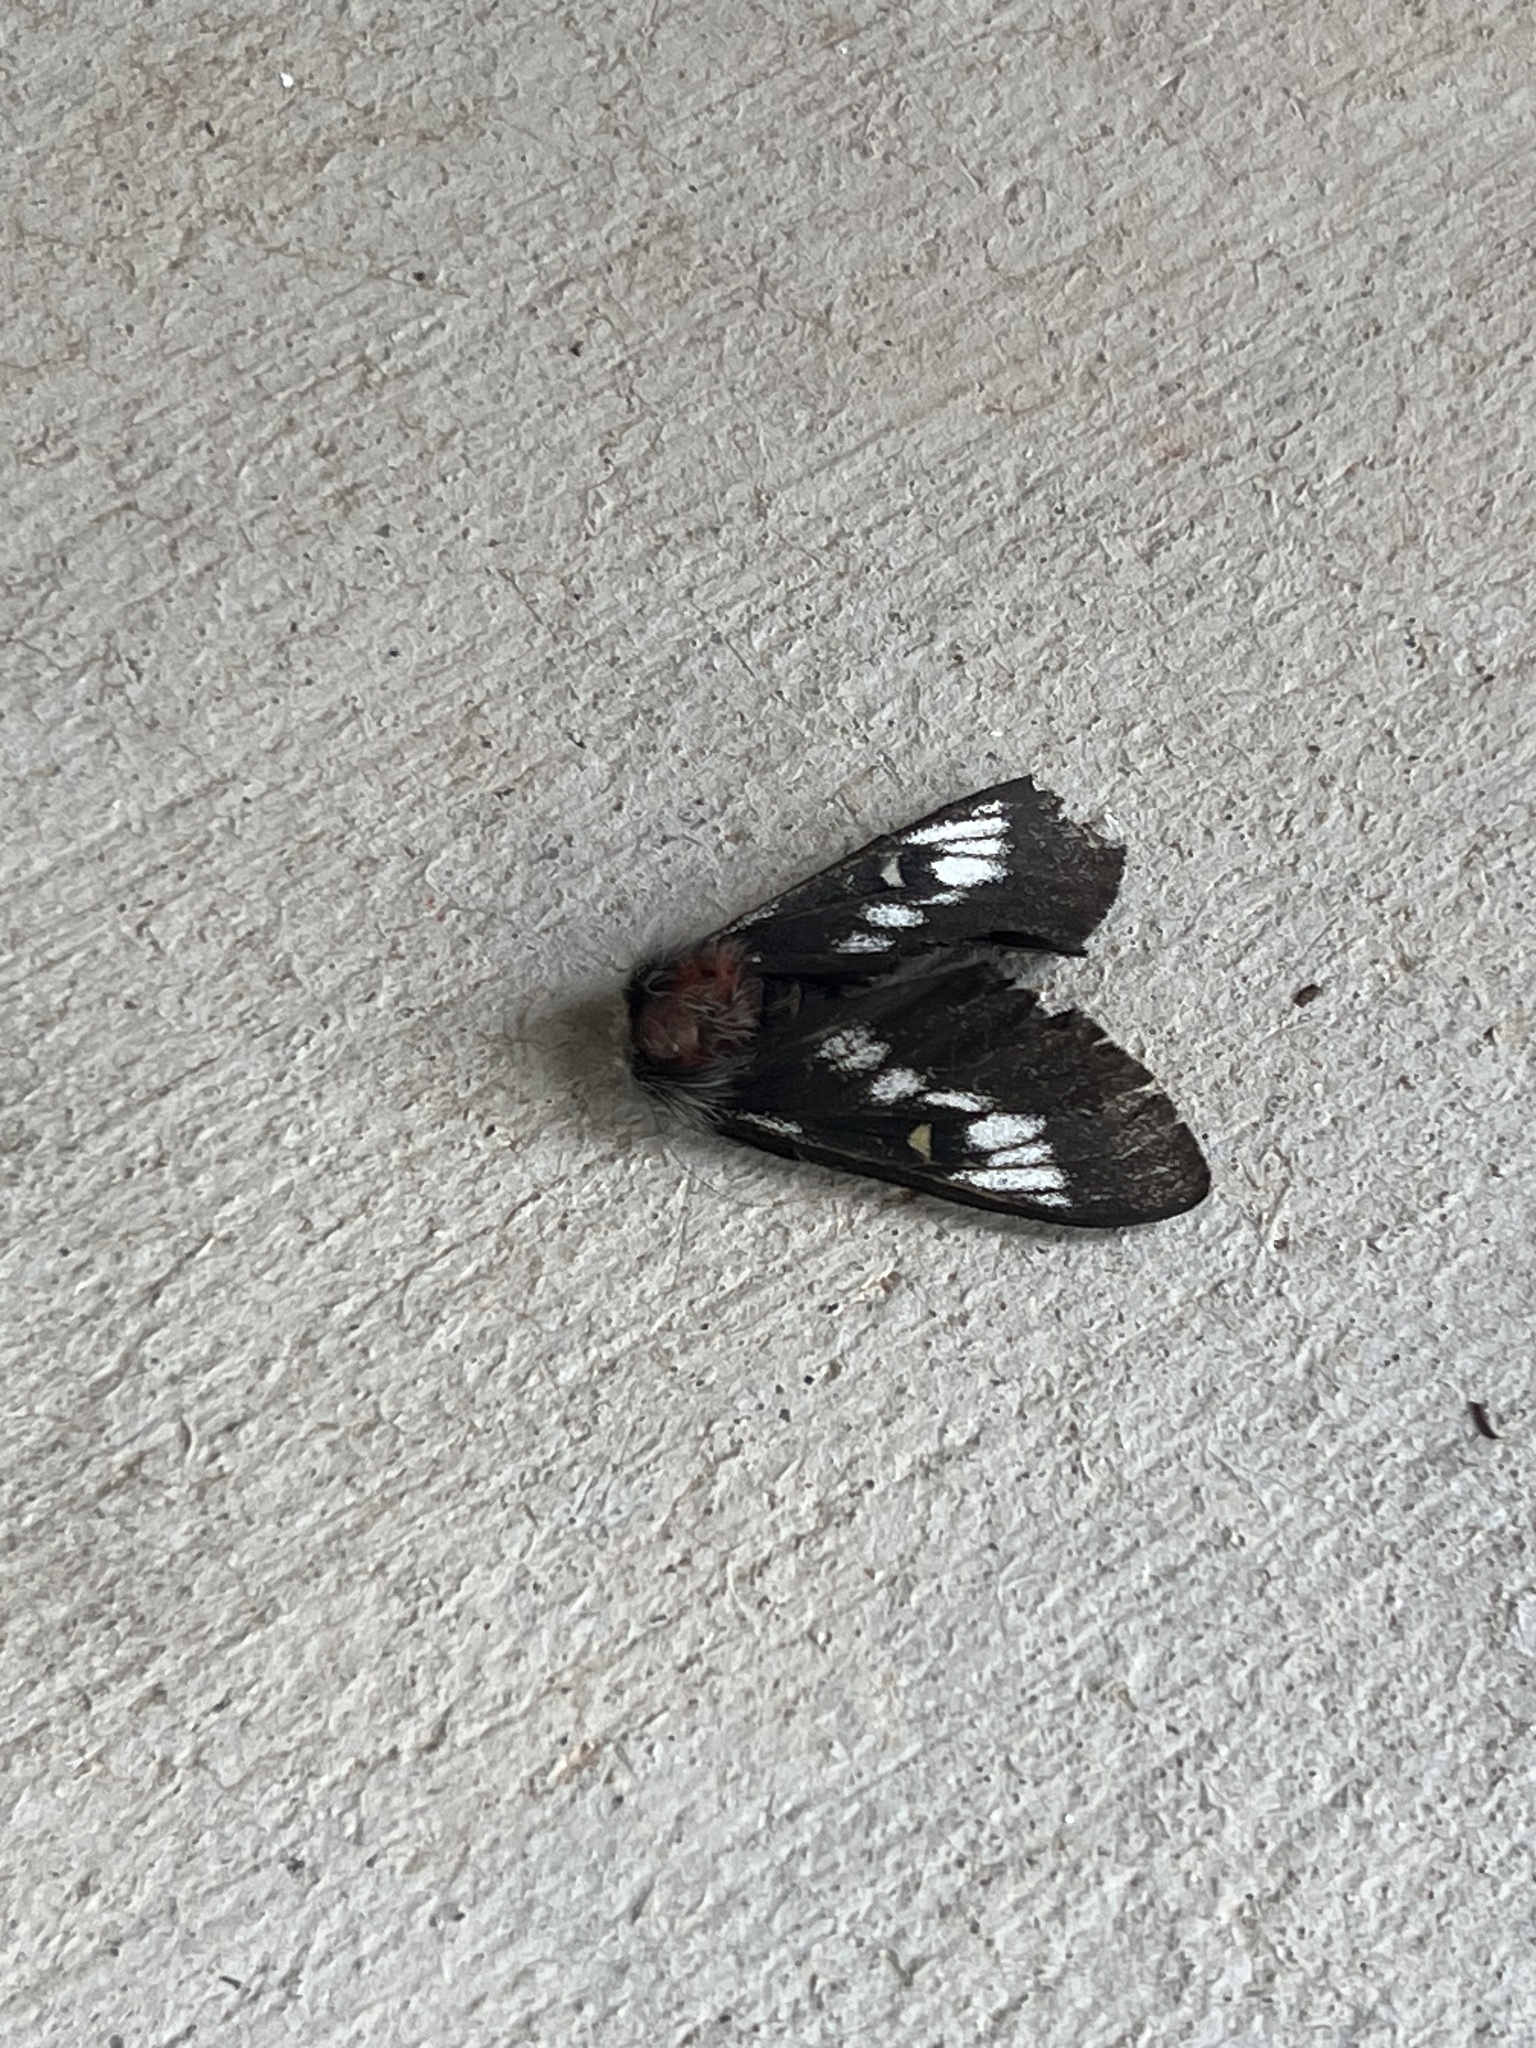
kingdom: Animalia
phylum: Arthropoda
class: Insecta
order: Lepidoptera
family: Saturniidae
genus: Hemileuca
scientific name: Hemileuca juno
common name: Juno buckmoth
